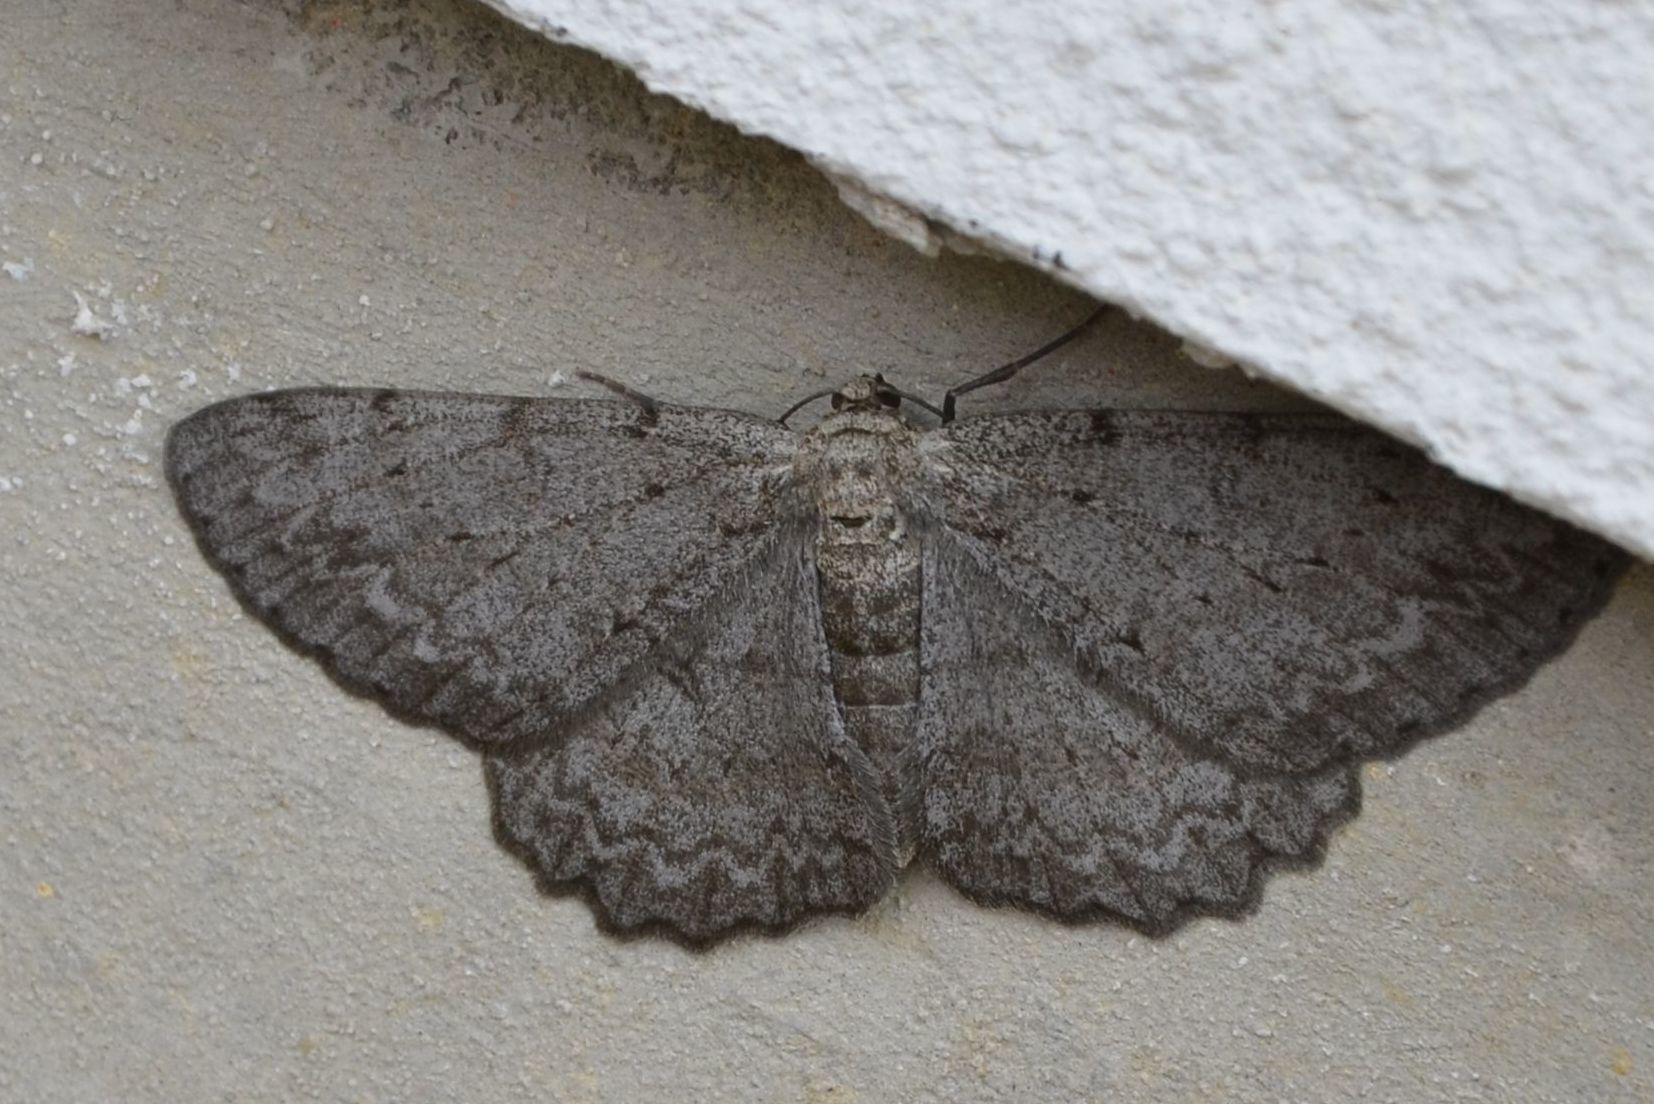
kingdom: Animalia
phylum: Arthropoda
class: Insecta
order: Lepidoptera
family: Geometridae
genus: Hypomecis
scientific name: Hypomecis punctinalis
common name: Pale oak beauty
